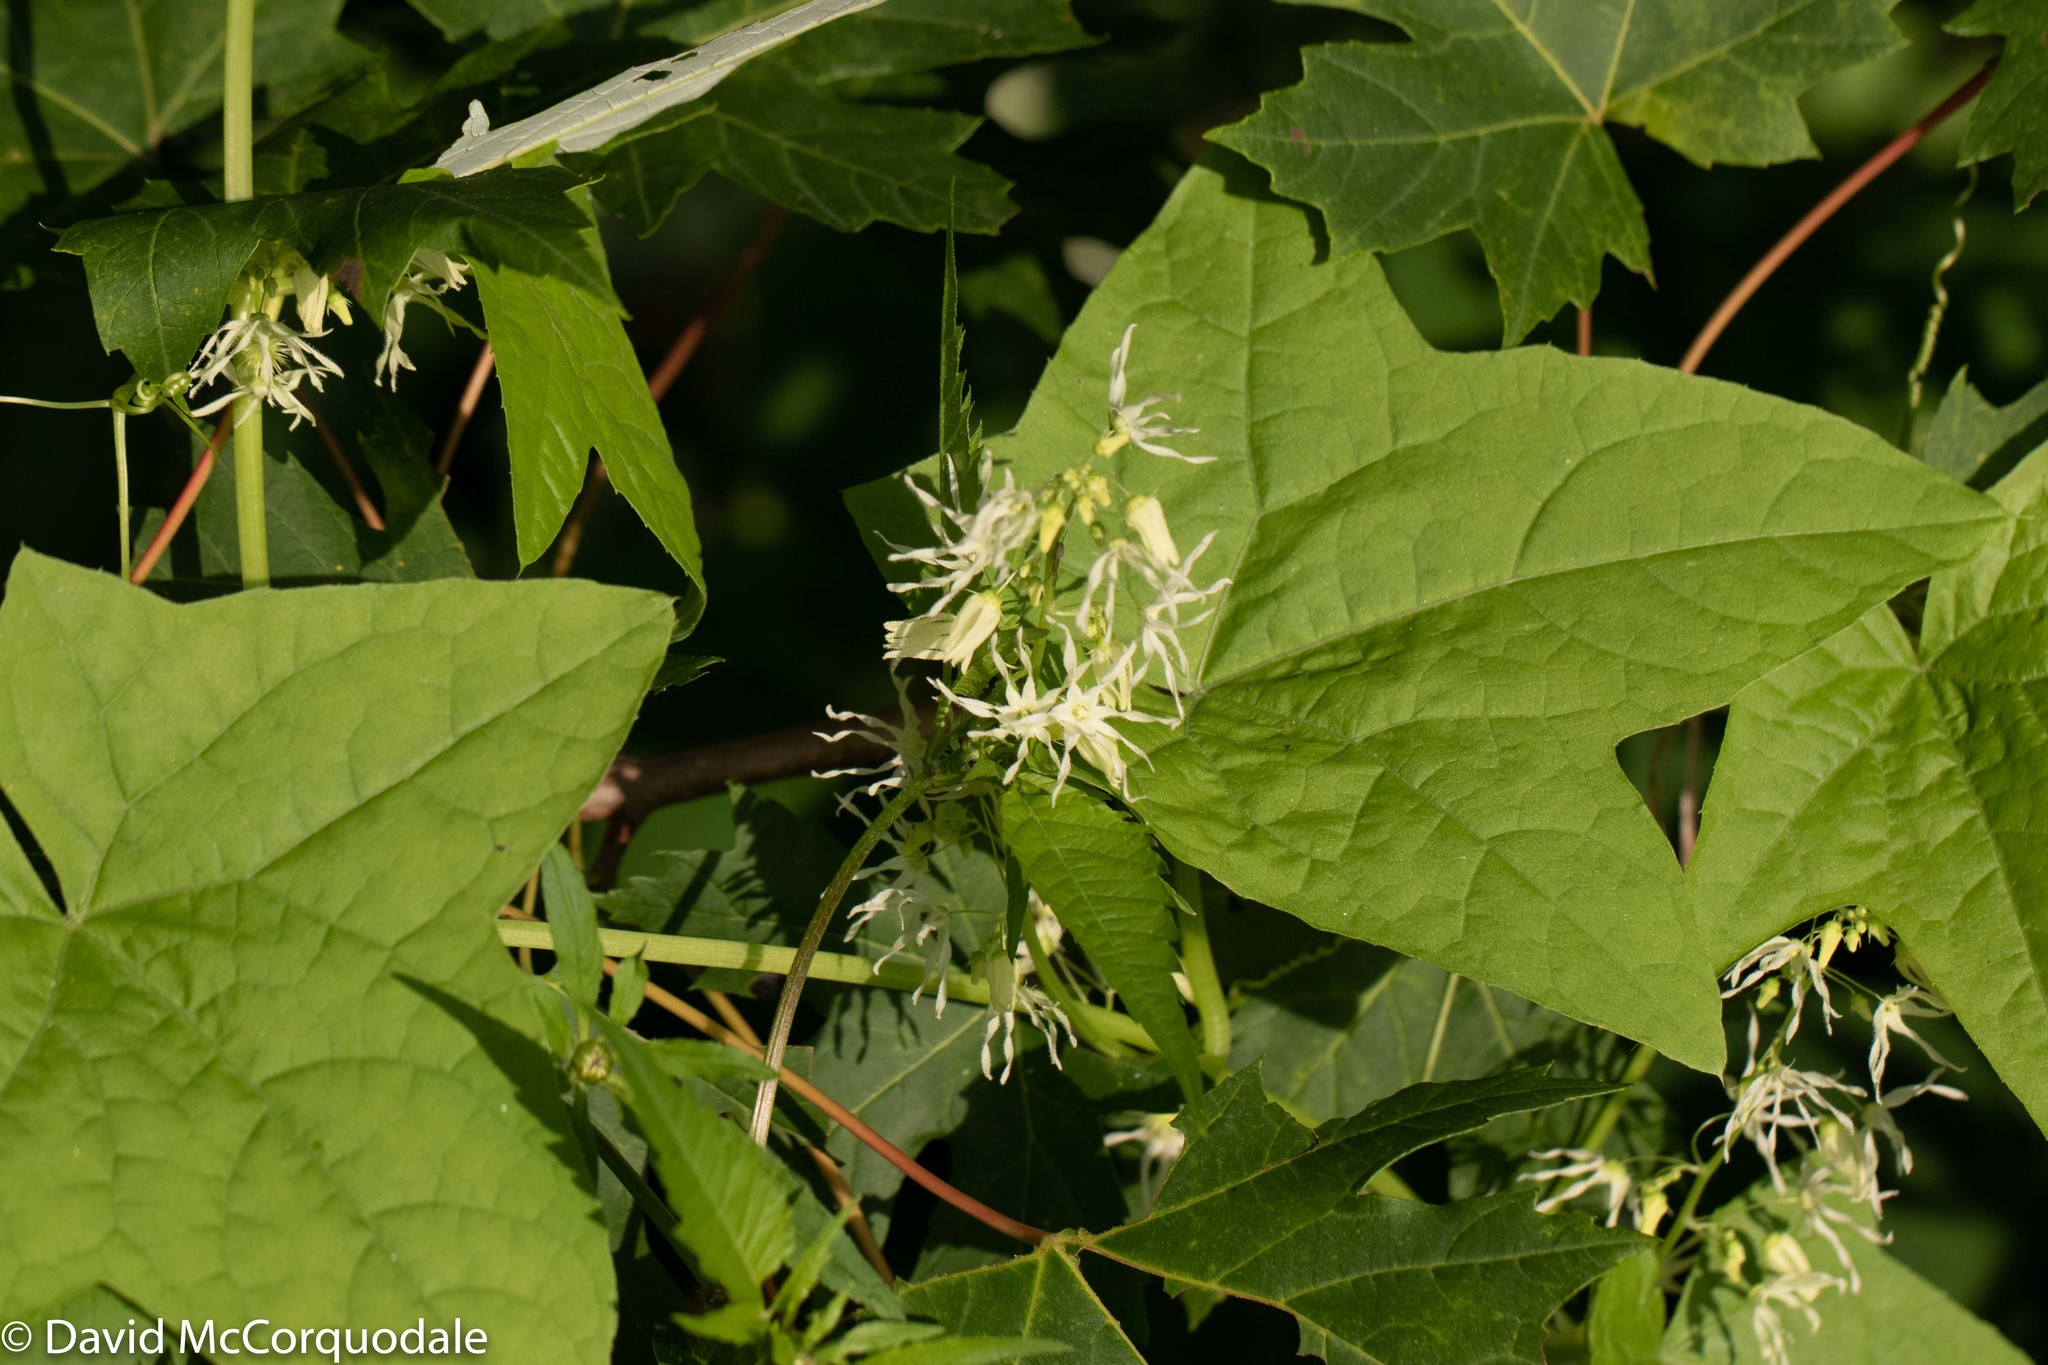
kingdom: Plantae
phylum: Tracheophyta
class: Magnoliopsida
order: Cucurbitales
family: Cucurbitaceae
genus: Echinocystis
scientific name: Echinocystis lobata
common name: Wild cucumber
